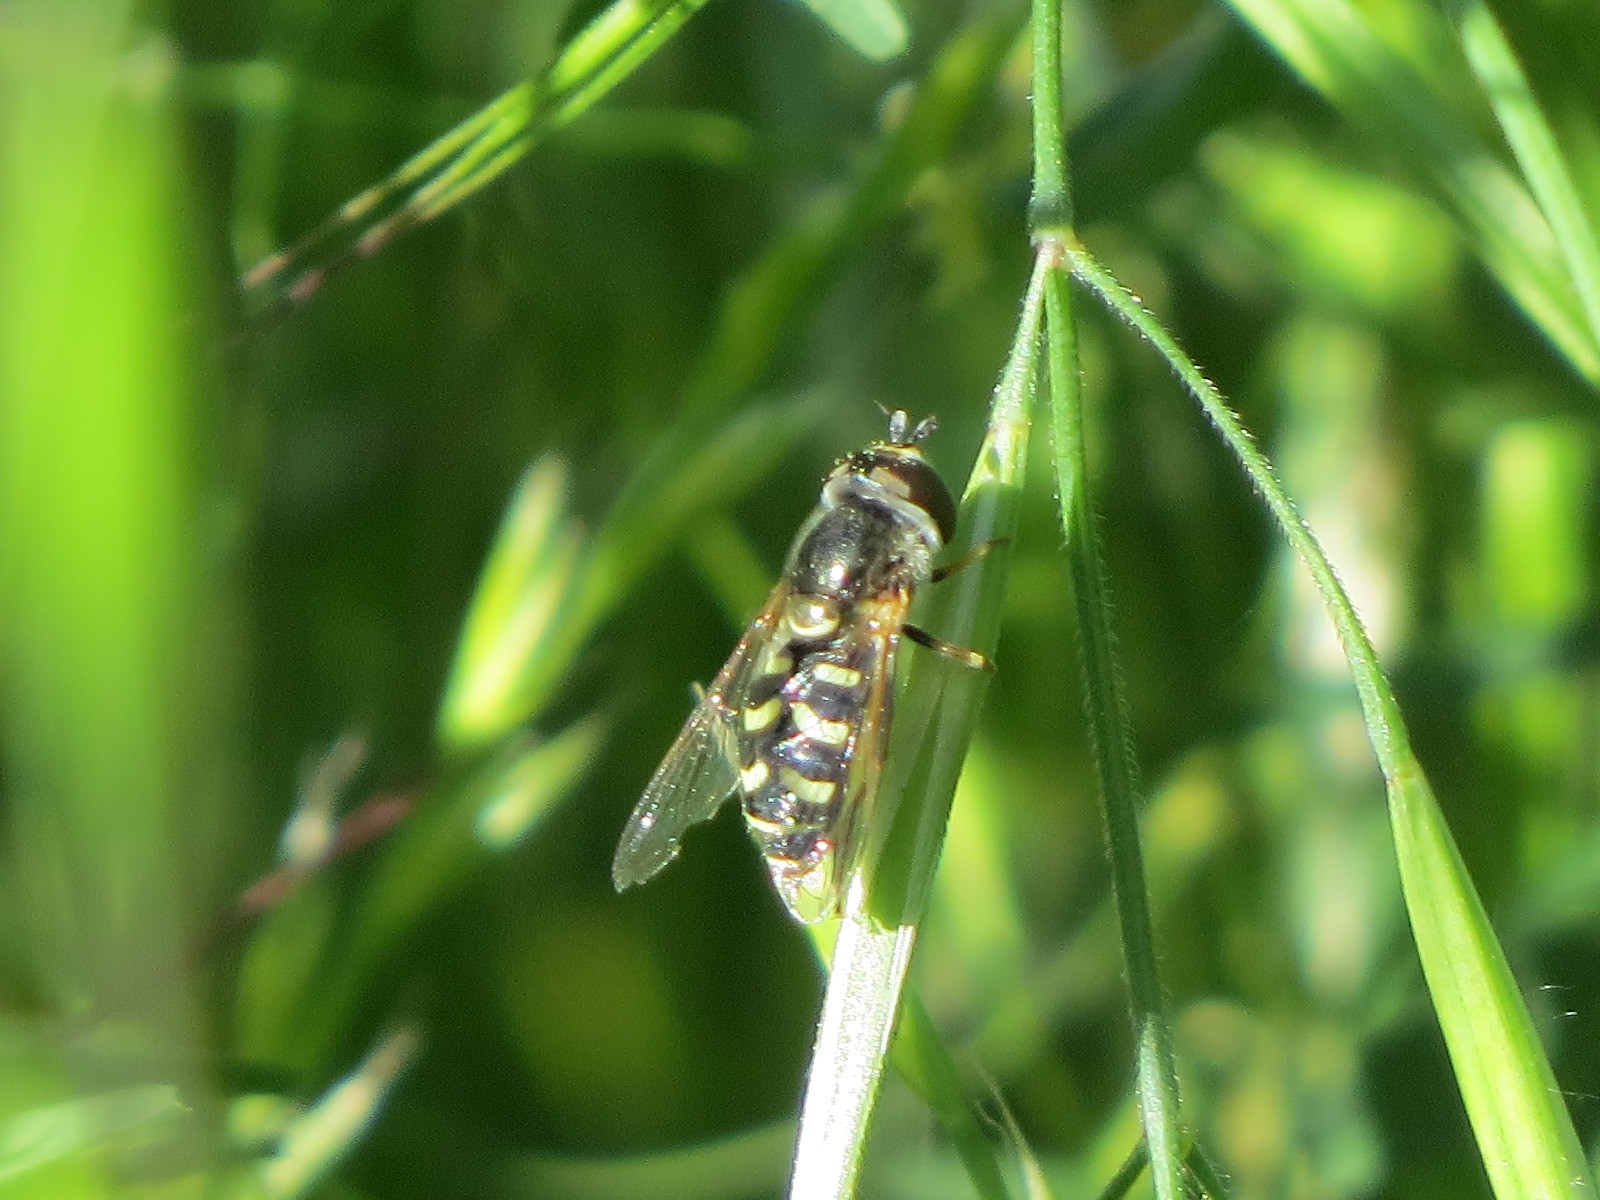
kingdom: Animalia
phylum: Arthropoda
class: Insecta
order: Diptera
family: Syrphidae
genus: Eupeodes
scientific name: Eupeodes volucris
